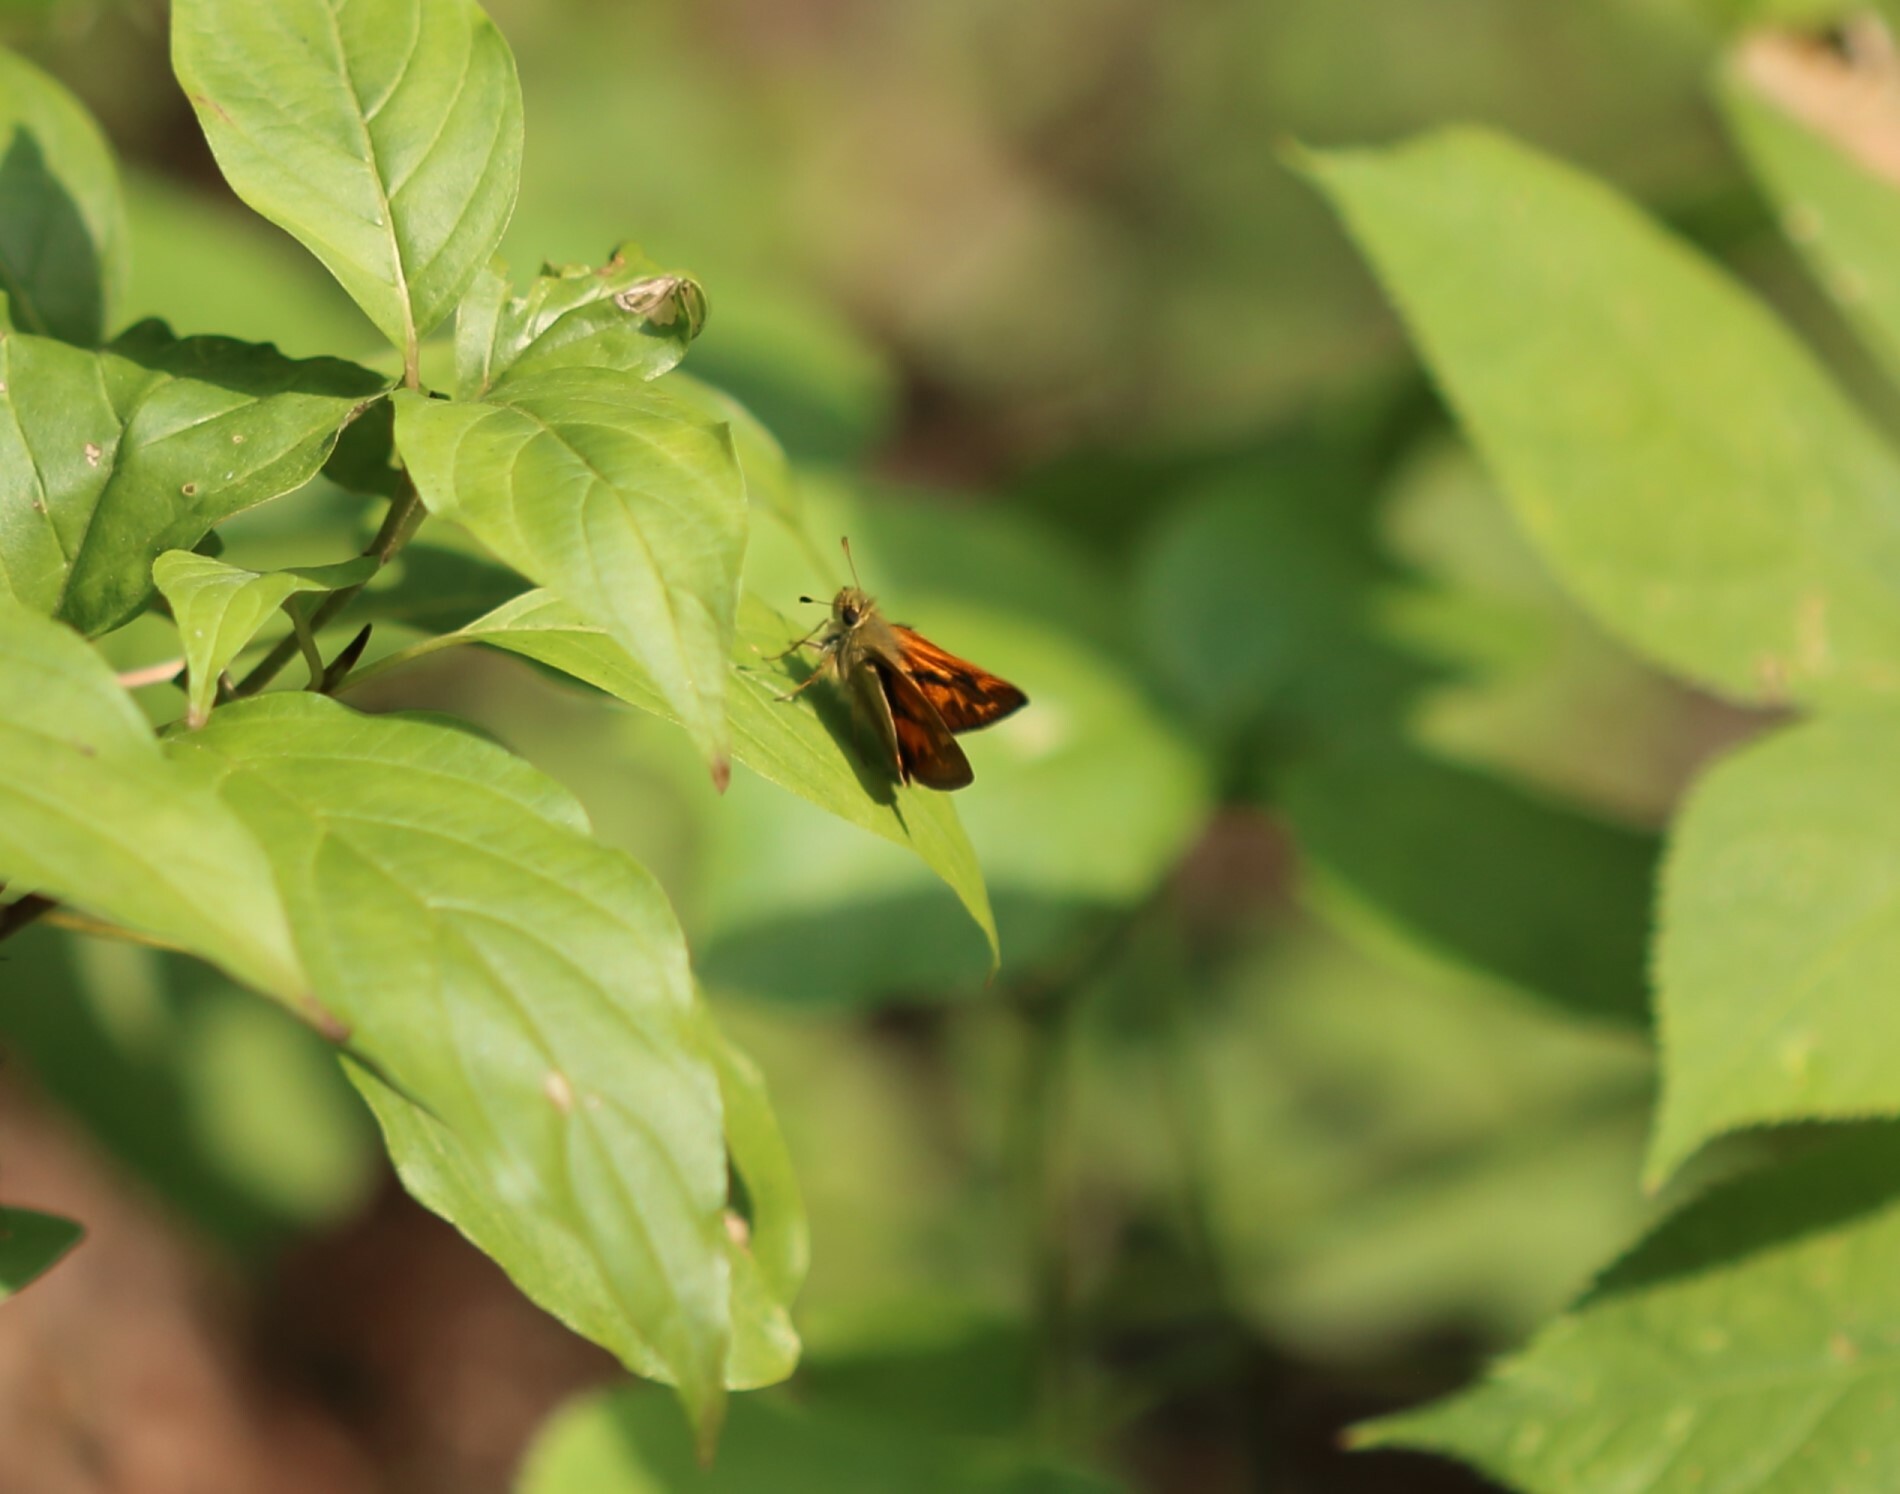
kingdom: Animalia
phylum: Arthropoda
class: Insecta
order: Lepidoptera
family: Hesperiidae
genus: Ochlodes
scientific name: Ochlodes sylvanoides
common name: Woodland skipper
